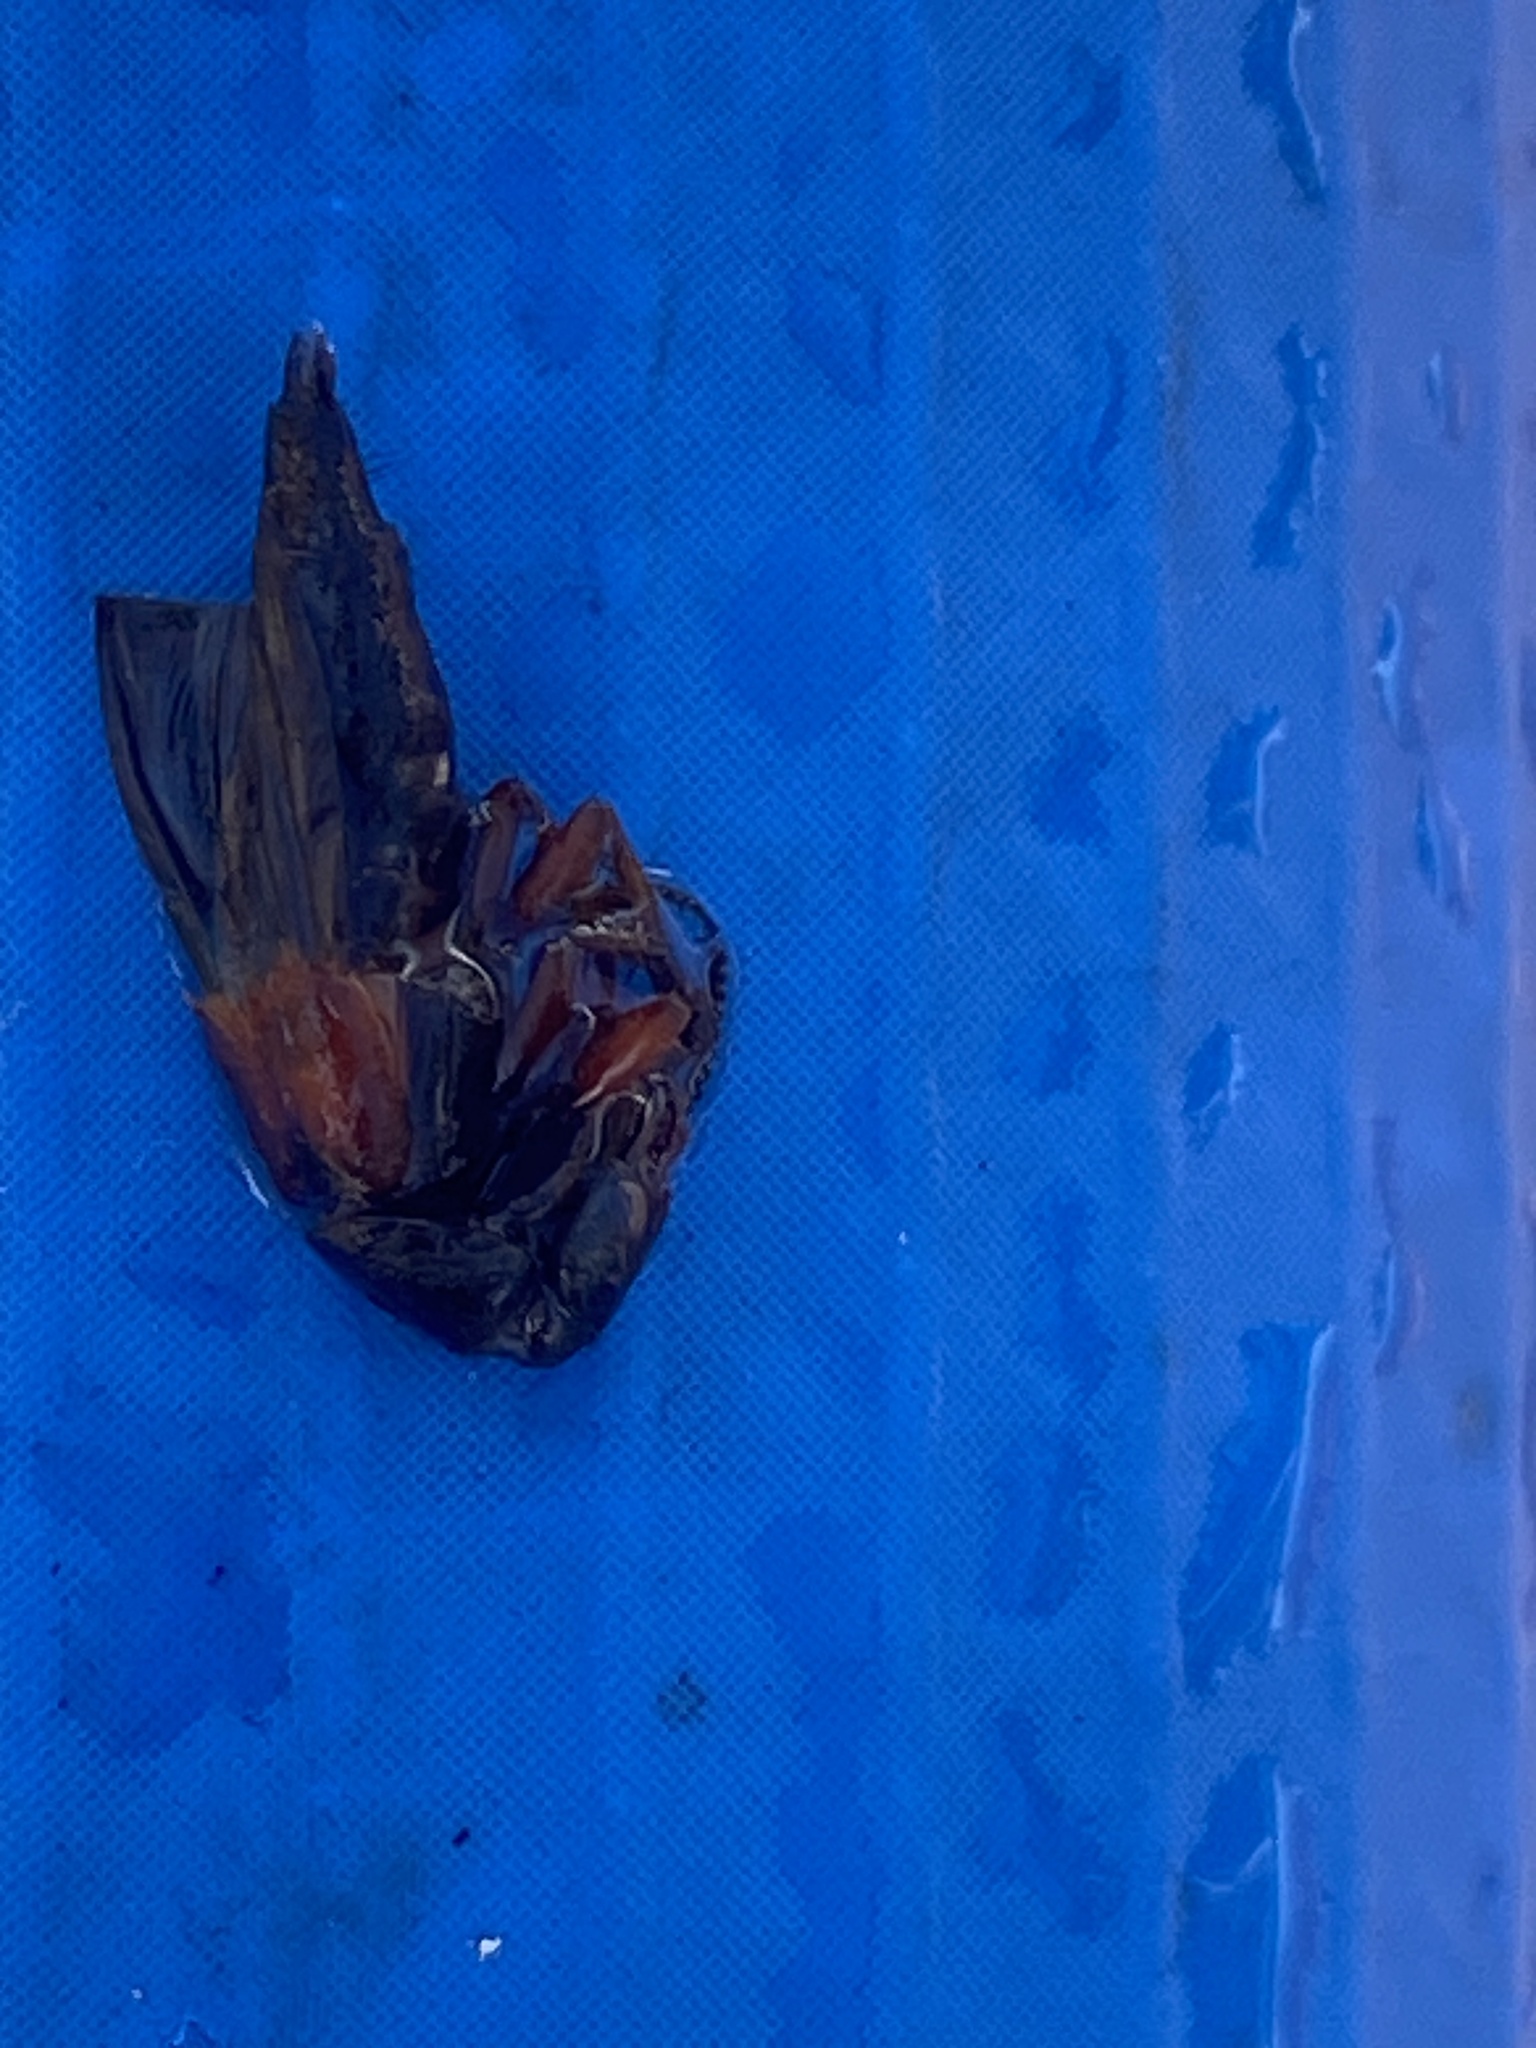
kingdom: Animalia
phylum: Arthropoda
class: Insecta
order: Coleoptera
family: Staphylinidae
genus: Platydracus
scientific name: Platydracus stercorarius
